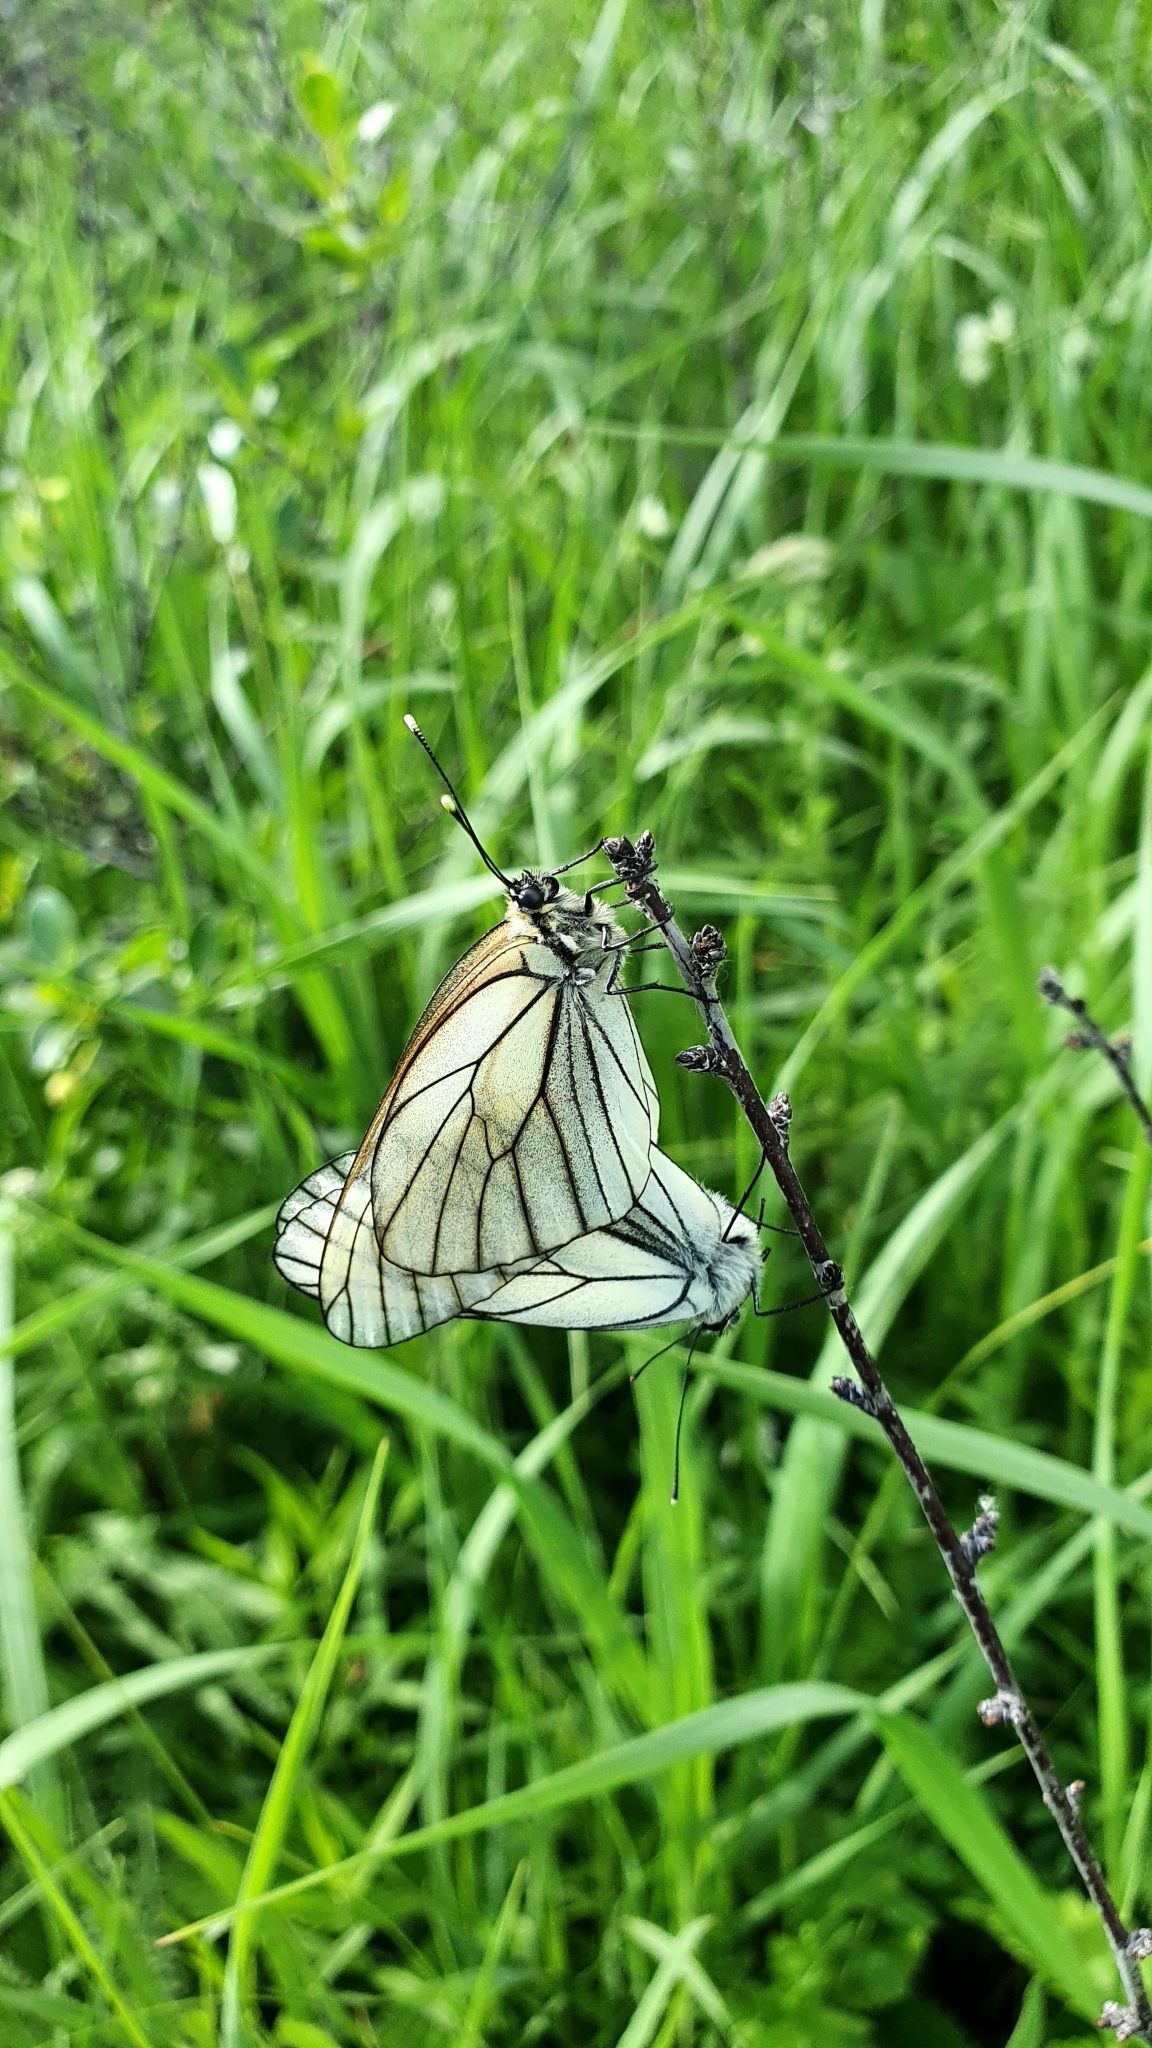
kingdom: Animalia
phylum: Arthropoda
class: Insecta
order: Lepidoptera
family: Pieridae
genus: Aporia
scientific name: Aporia crataegi
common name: Black-veined white
